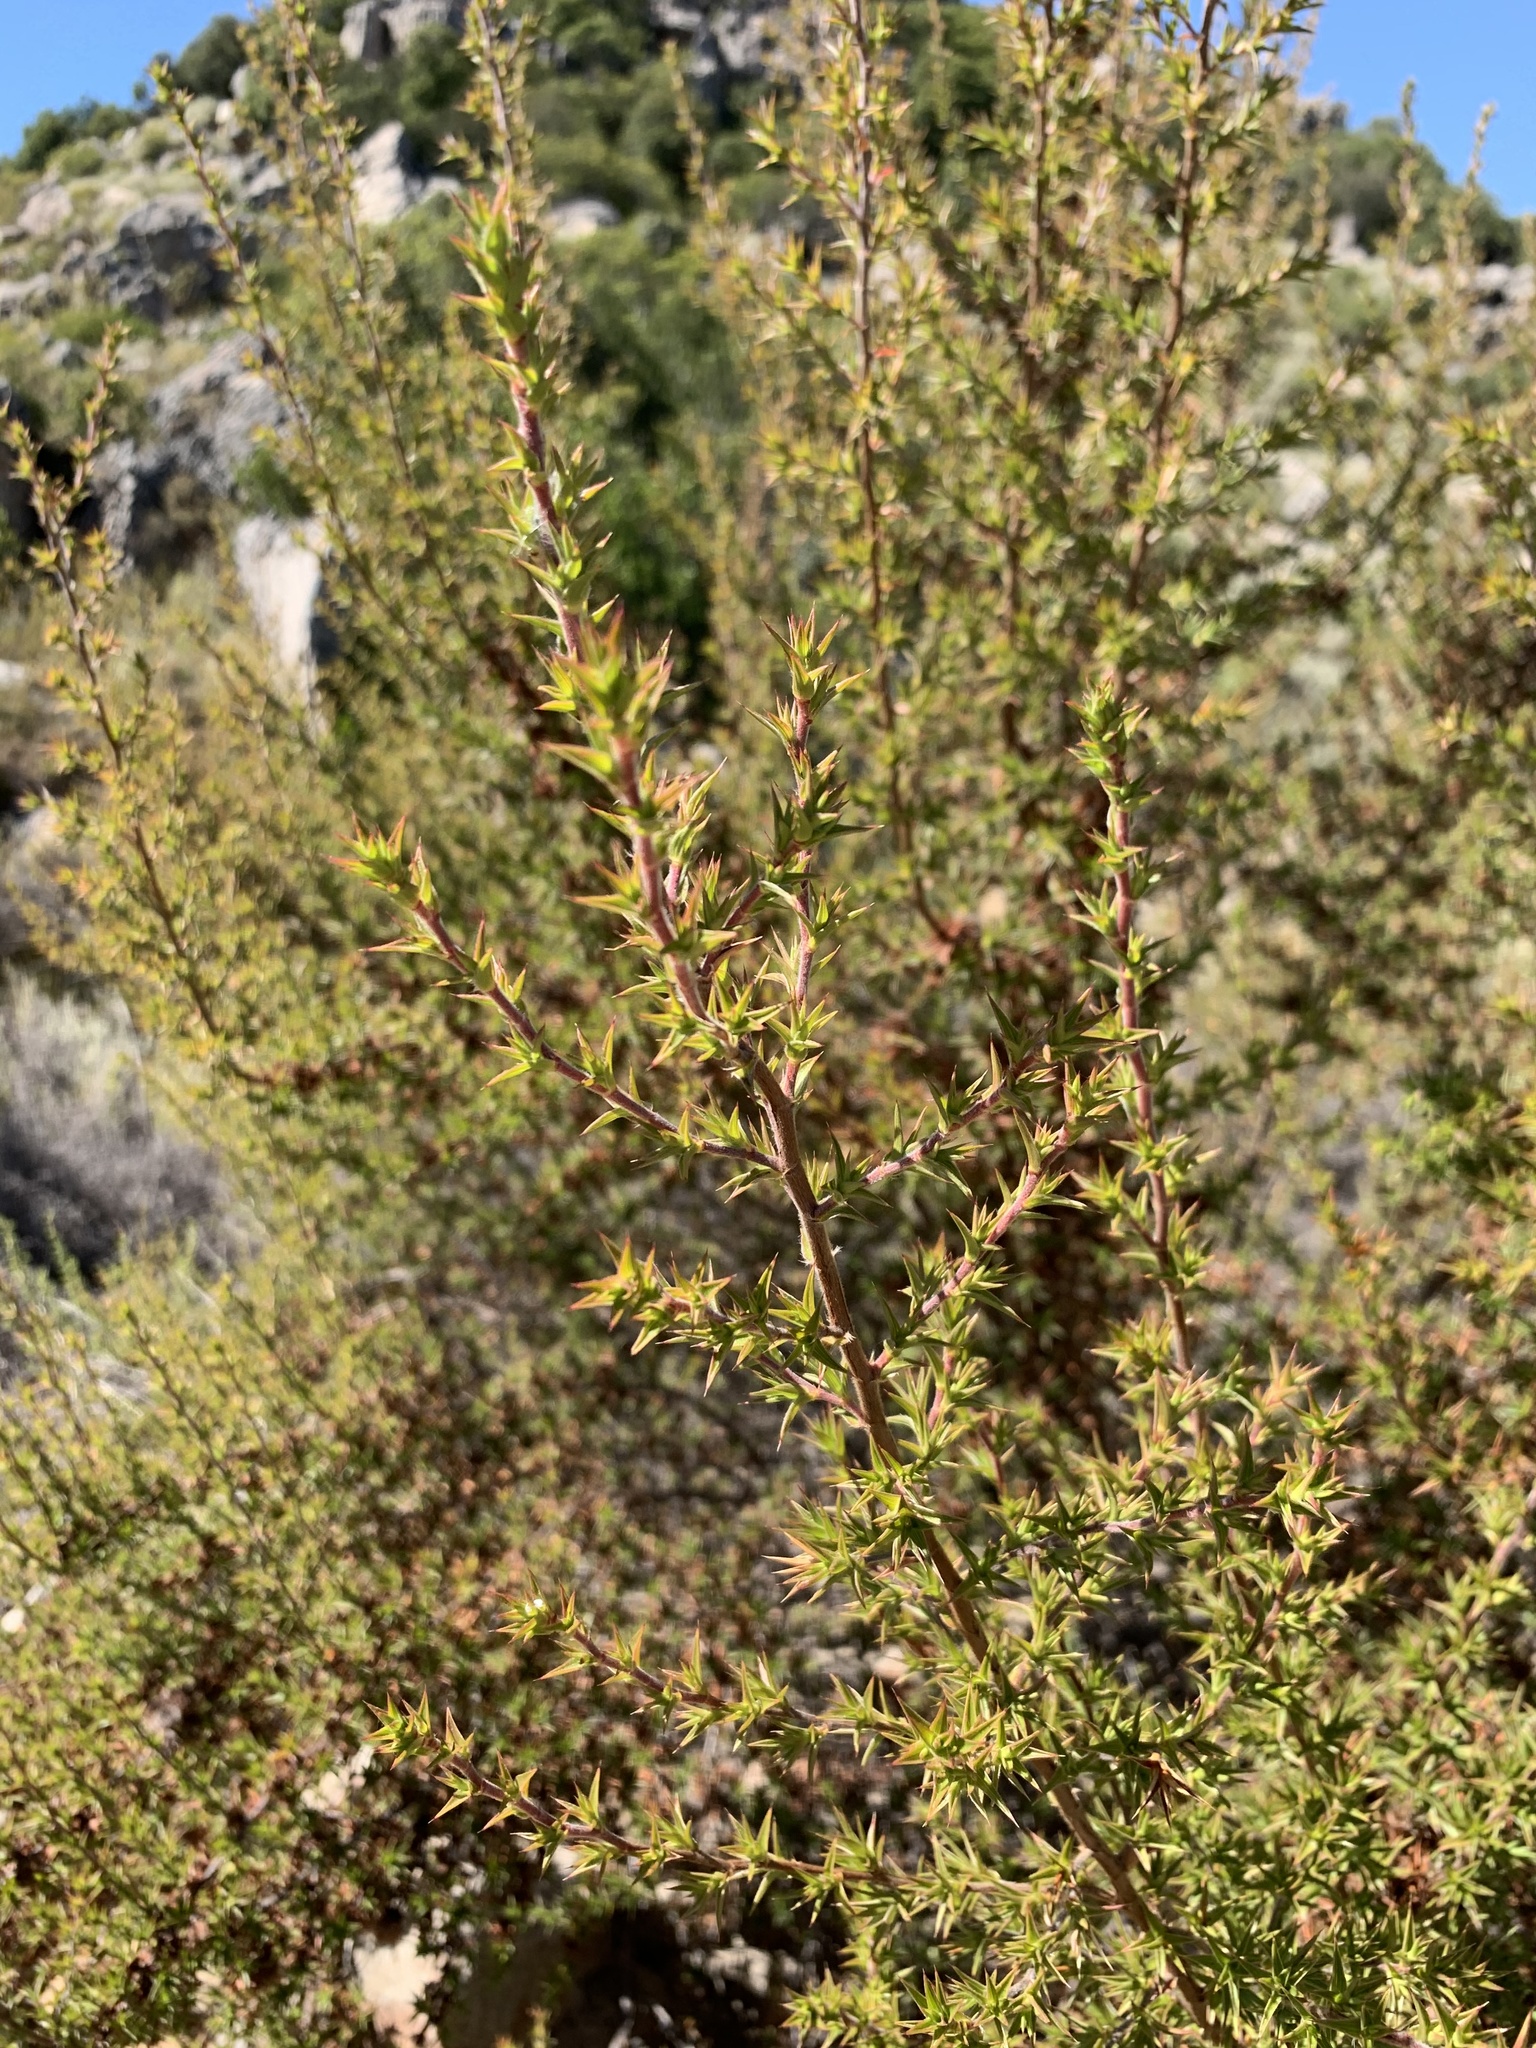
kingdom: Plantae
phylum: Tracheophyta
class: Magnoliopsida
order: Rosales
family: Rosaceae
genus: Cliffortia
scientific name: Cliffortia ruscifolia
